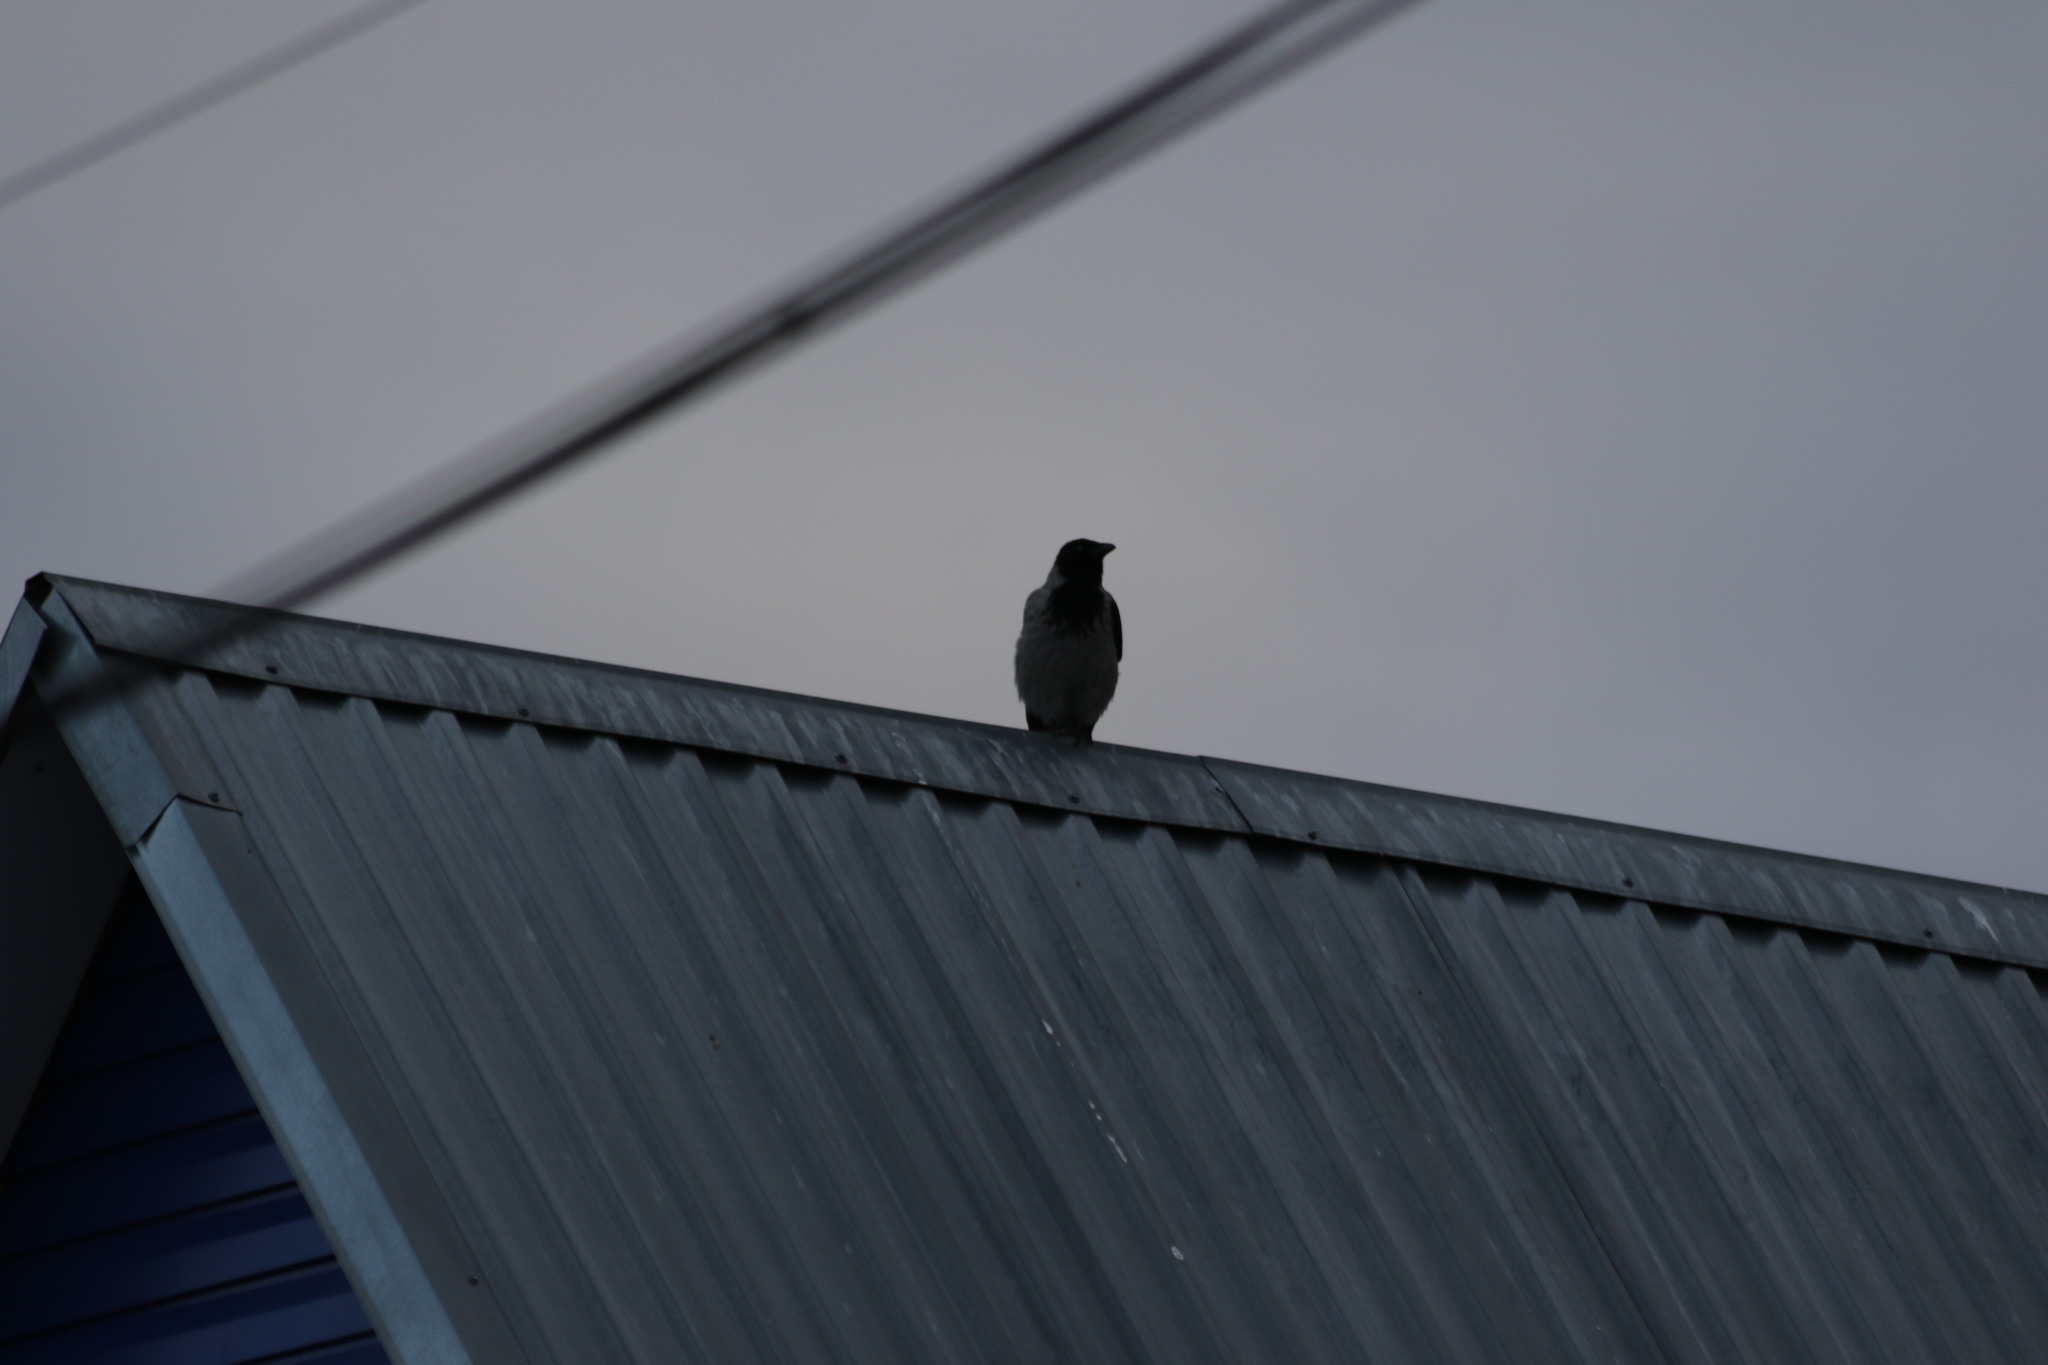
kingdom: Animalia
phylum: Chordata
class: Aves
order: Passeriformes
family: Corvidae
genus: Corvus
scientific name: Corvus cornix
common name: Hooded crow
